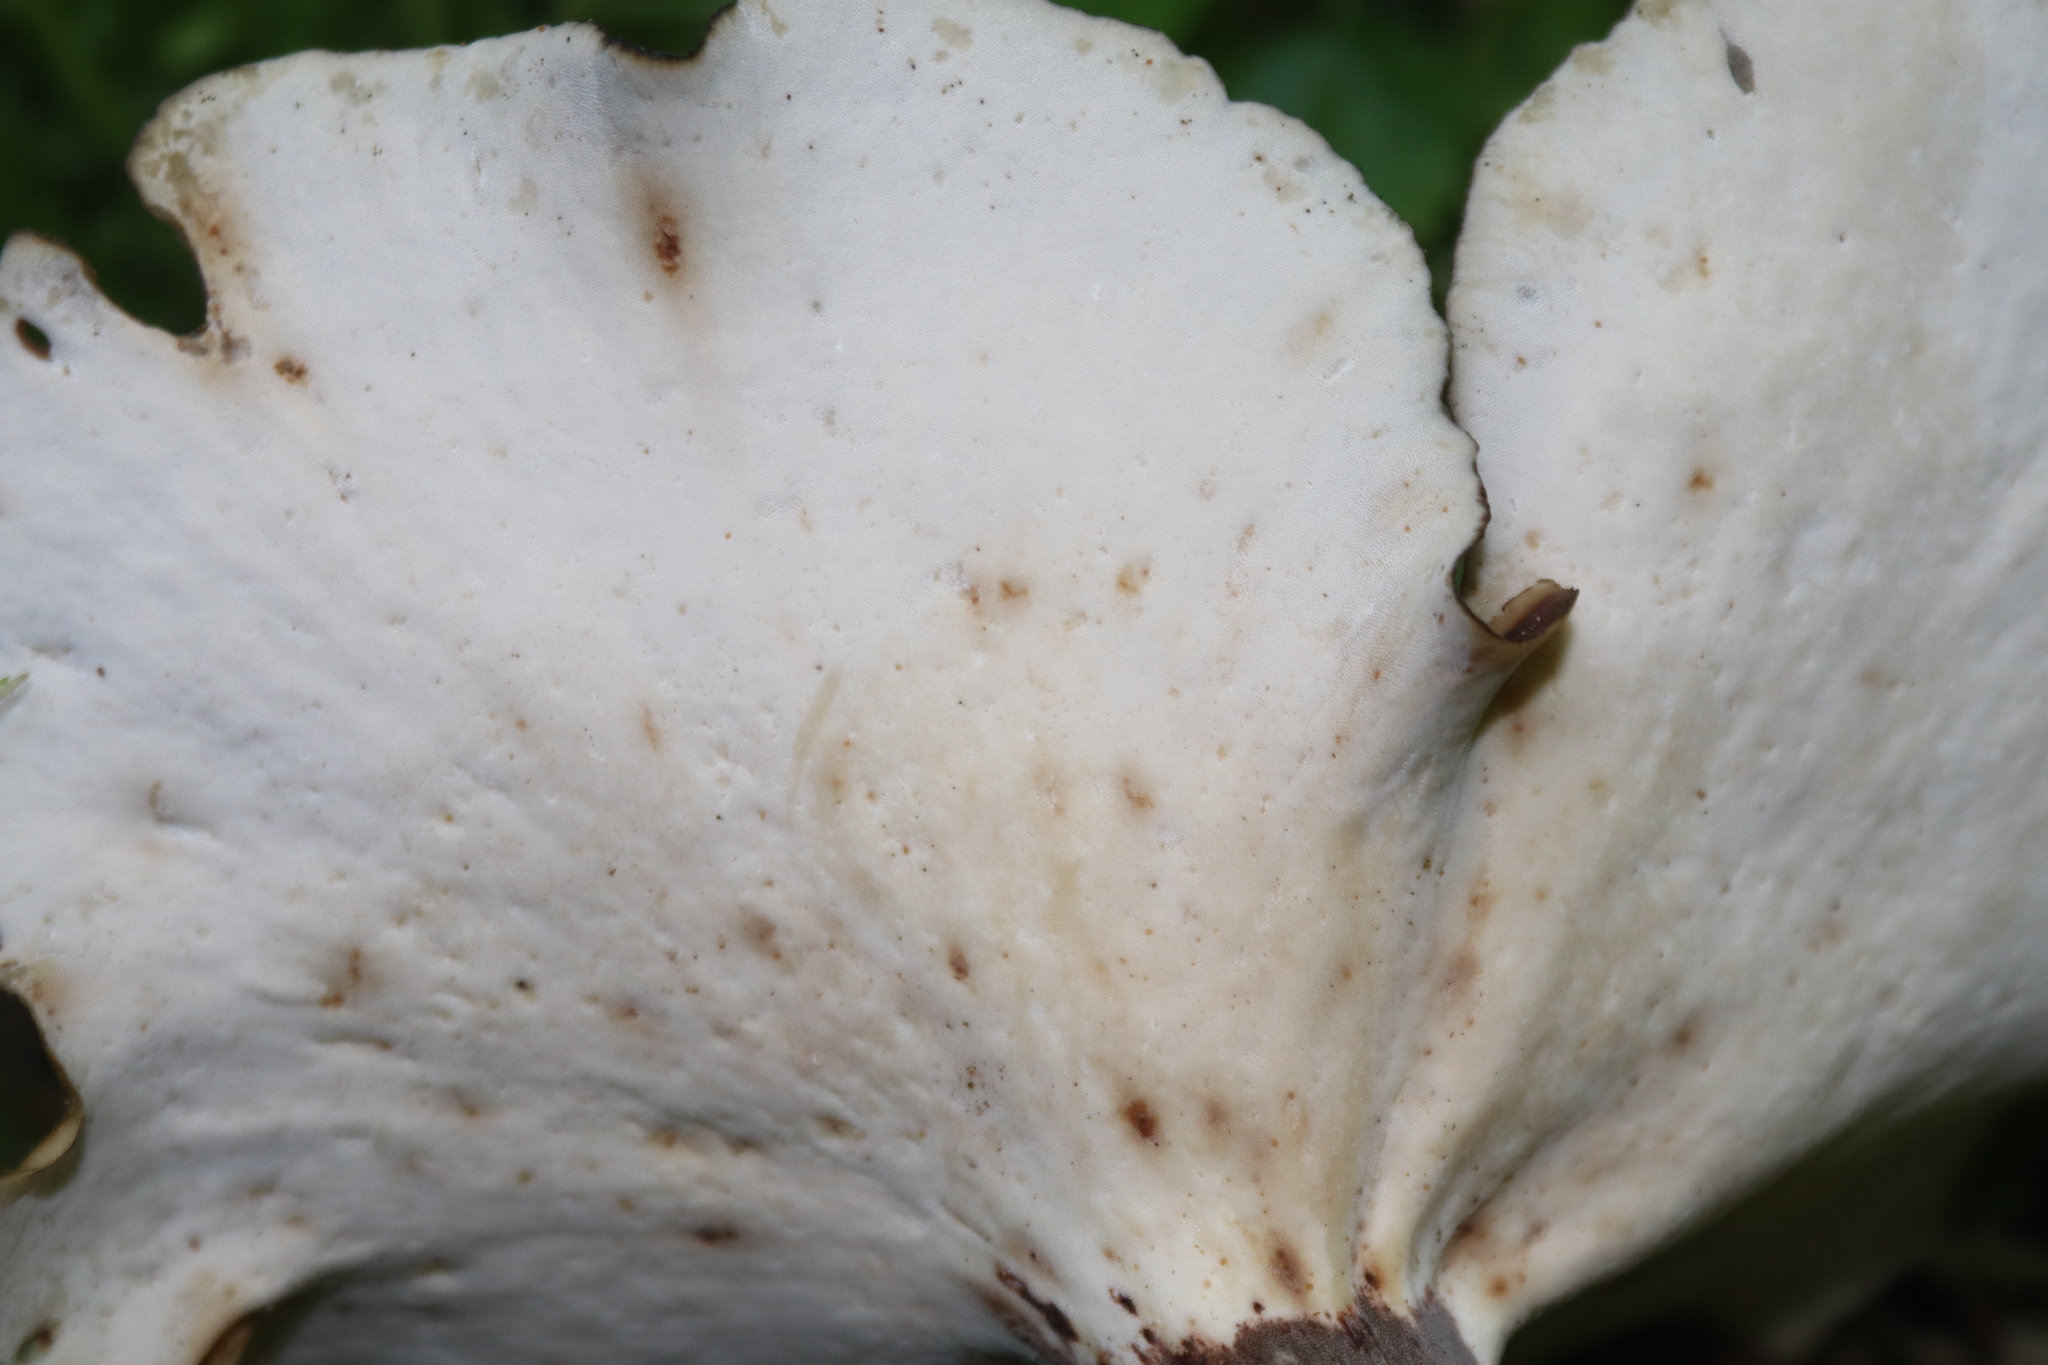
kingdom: Fungi
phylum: Basidiomycota
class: Agaricomycetes
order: Polyporales
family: Polyporaceae
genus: Picipes
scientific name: Picipes badius
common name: Bay polypore
